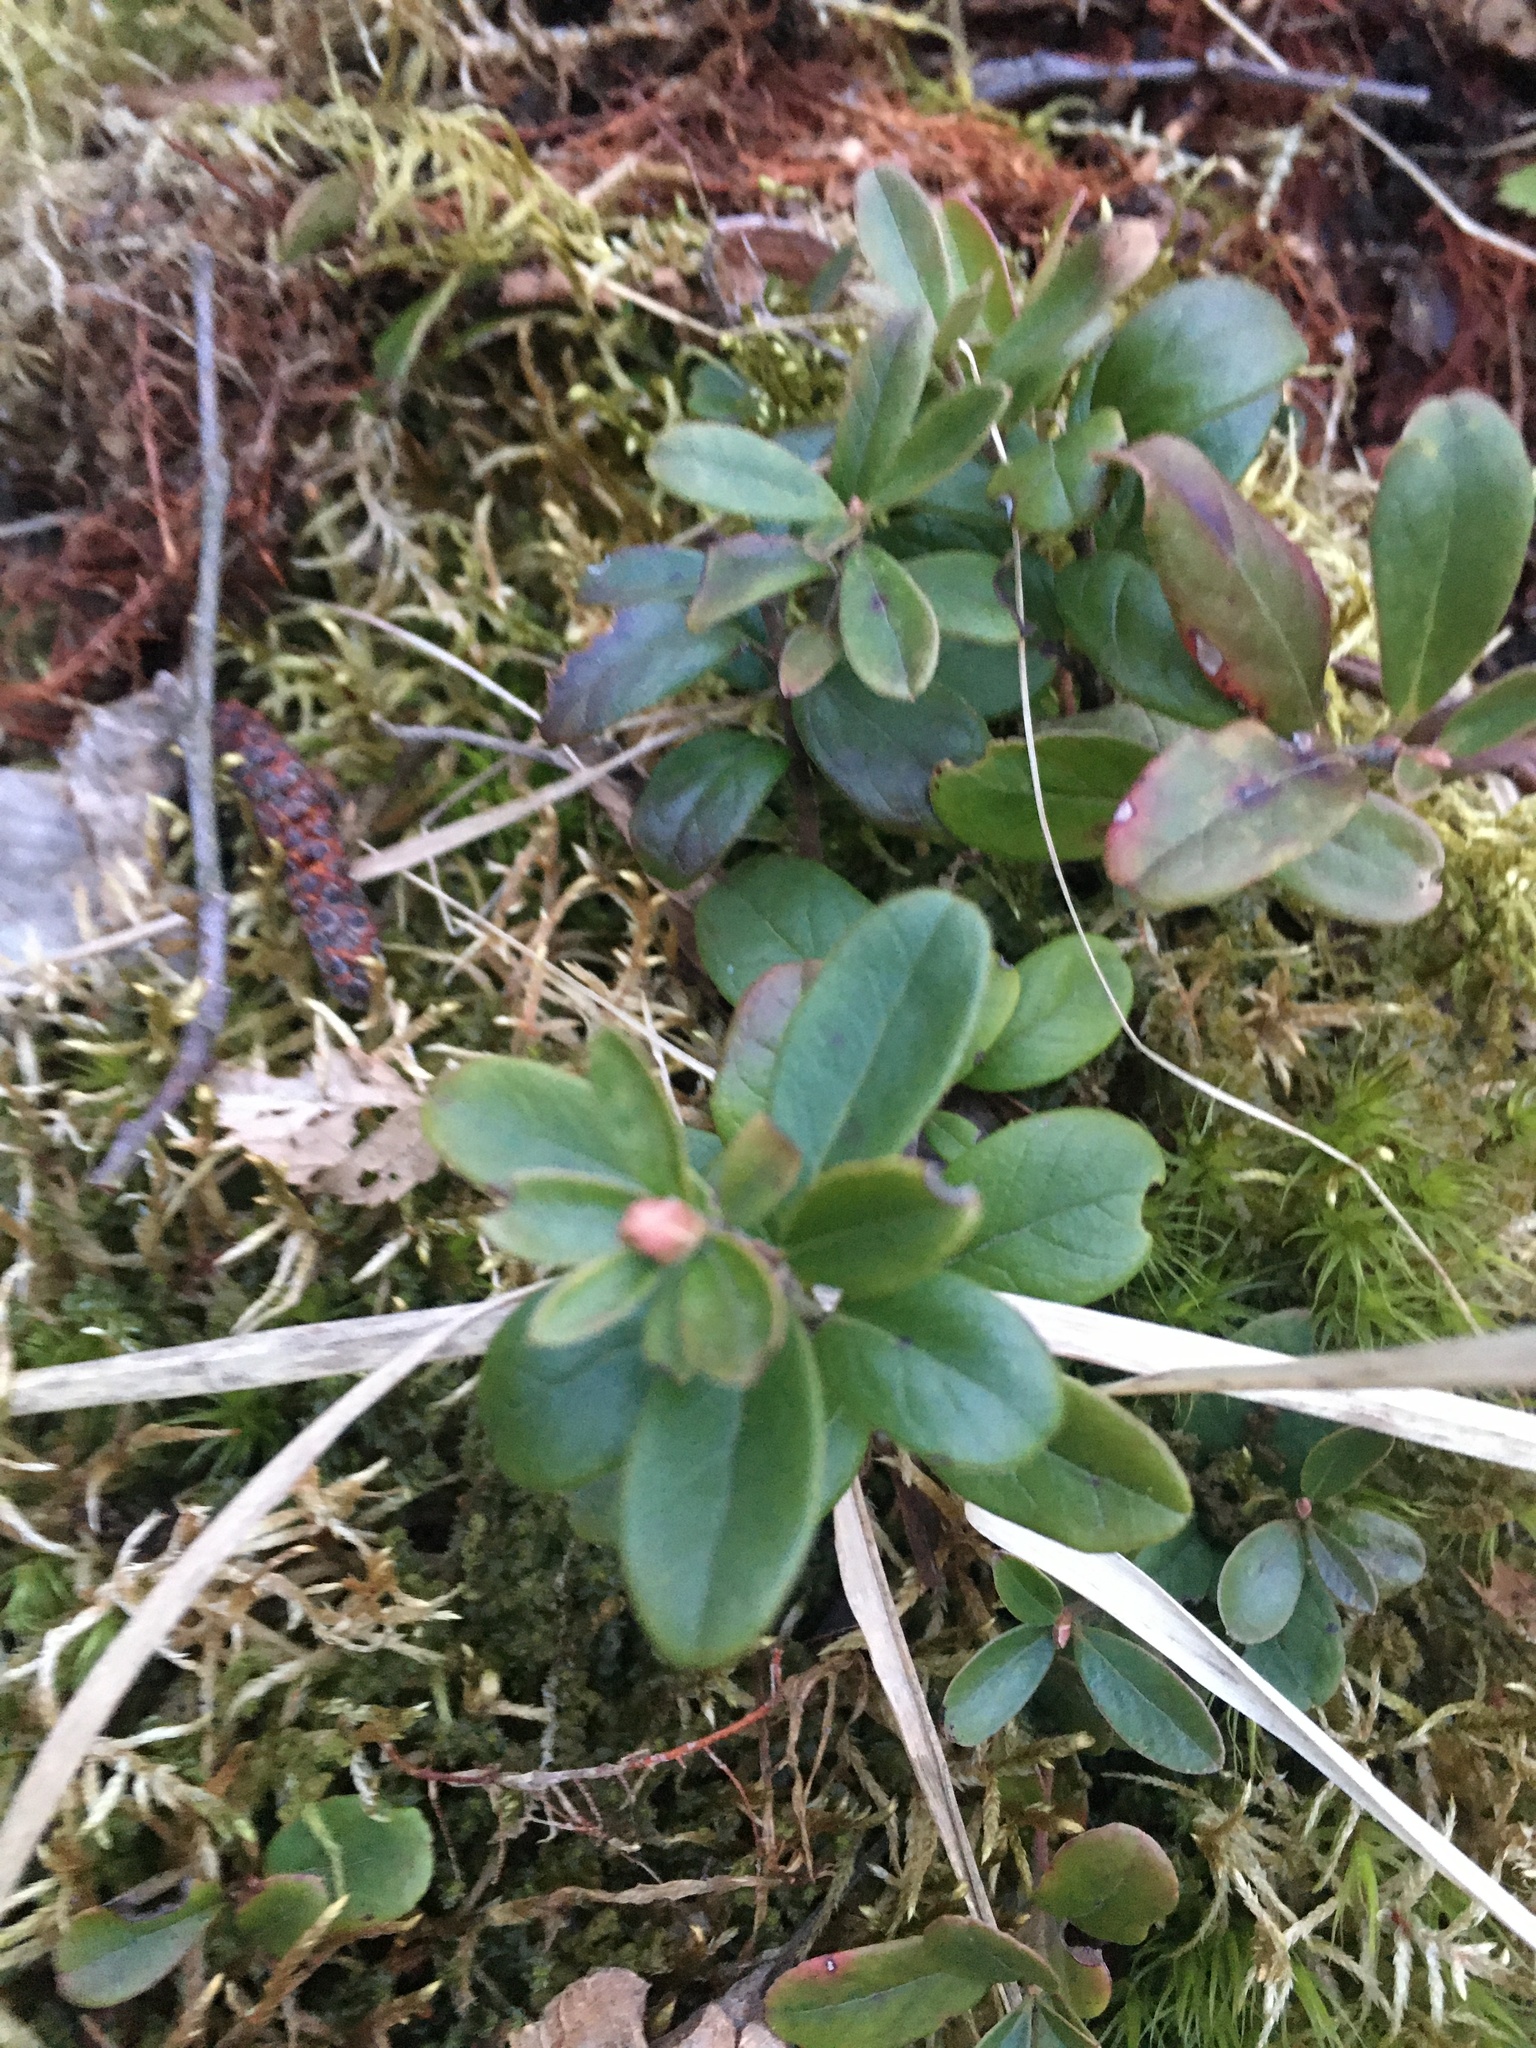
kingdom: Plantae
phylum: Tracheophyta
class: Magnoliopsida
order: Ericales
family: Ericaceae
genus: Vaccinium
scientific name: Vaccinium vitis-idaea
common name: Cowberry
